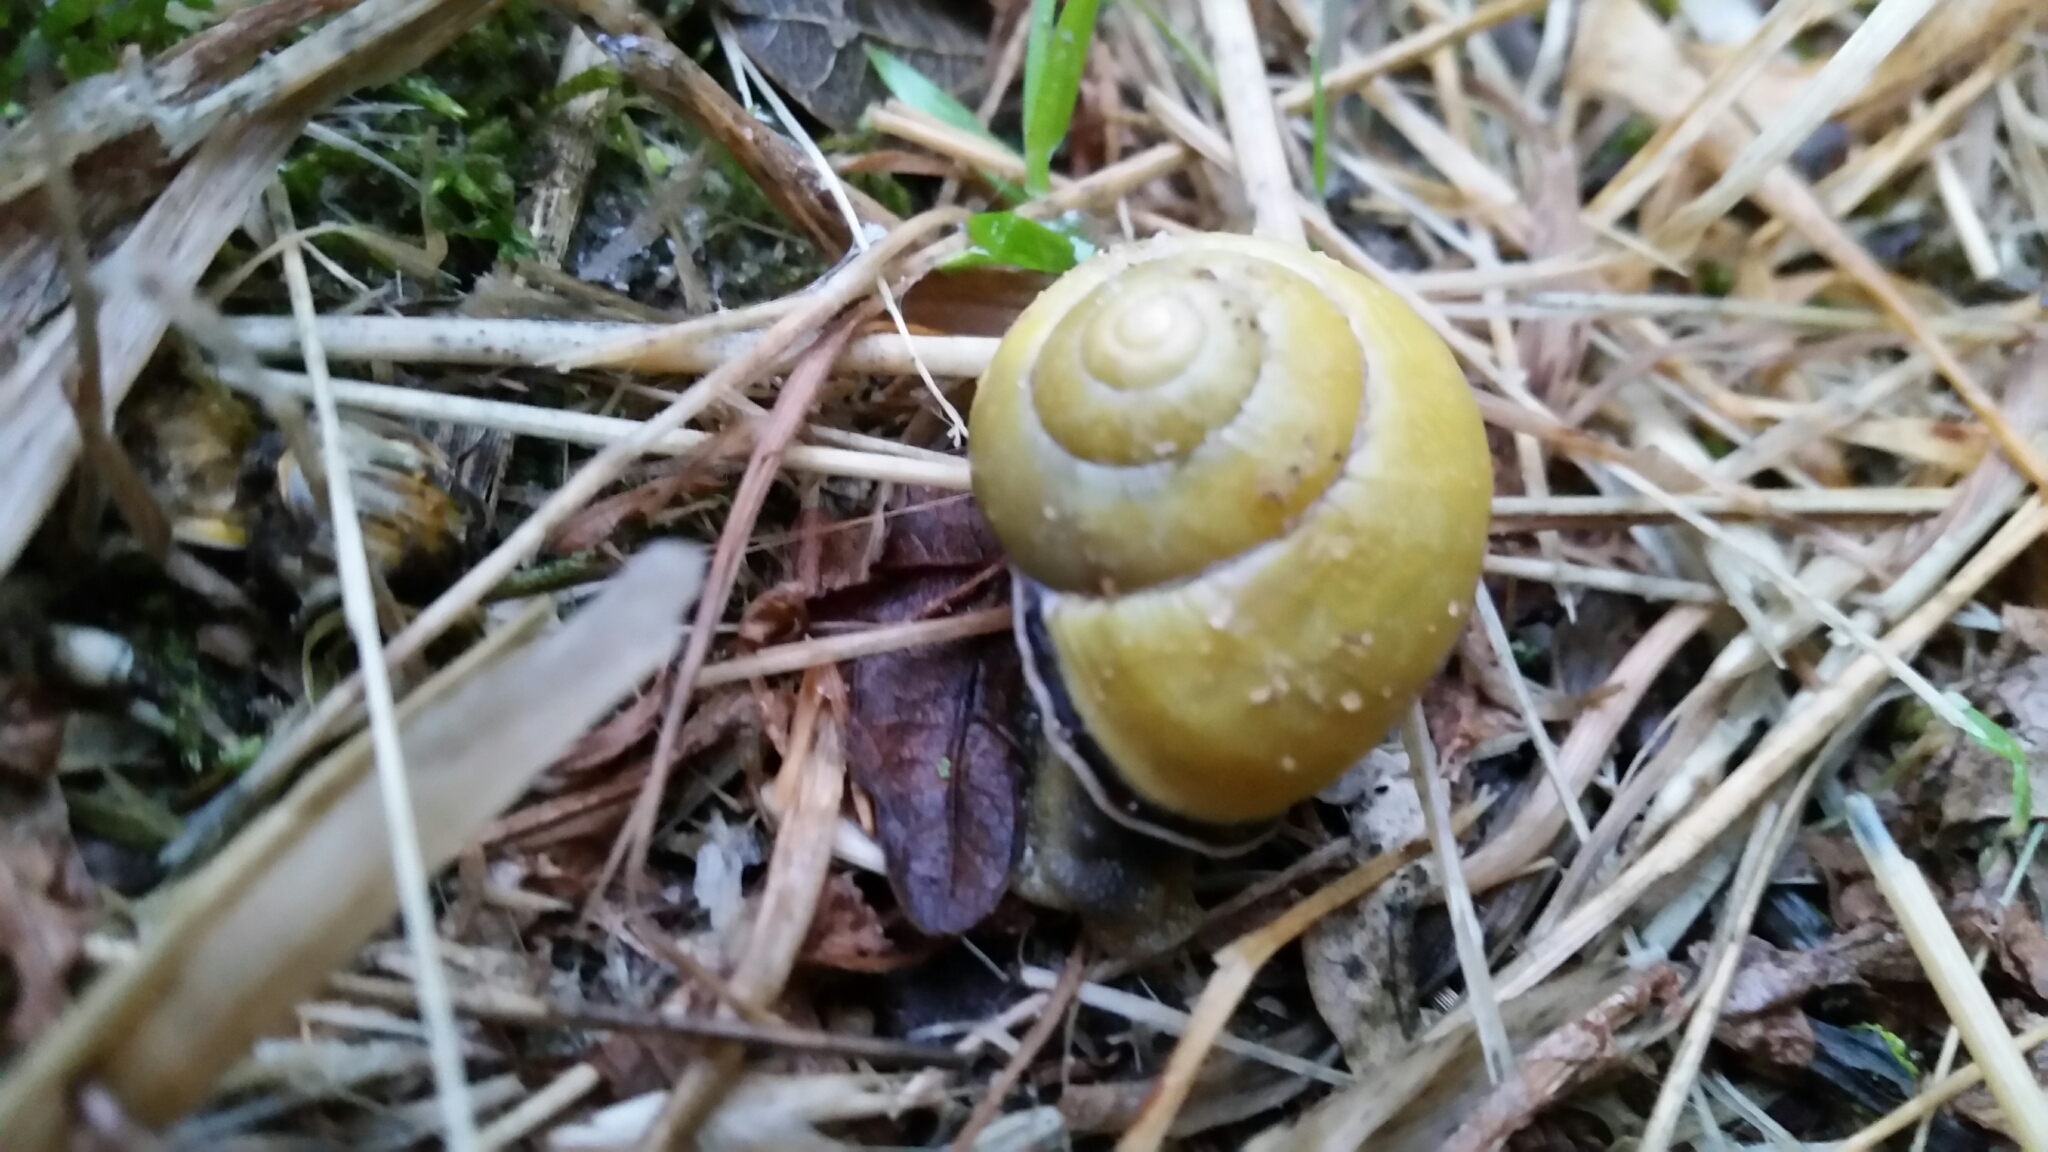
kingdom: Animalia
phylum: Mollusca
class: Gastropoda
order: Stylommatophora
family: Helicidae
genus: Cepaea
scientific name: Cepaea nemoralis
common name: Grovesnail
